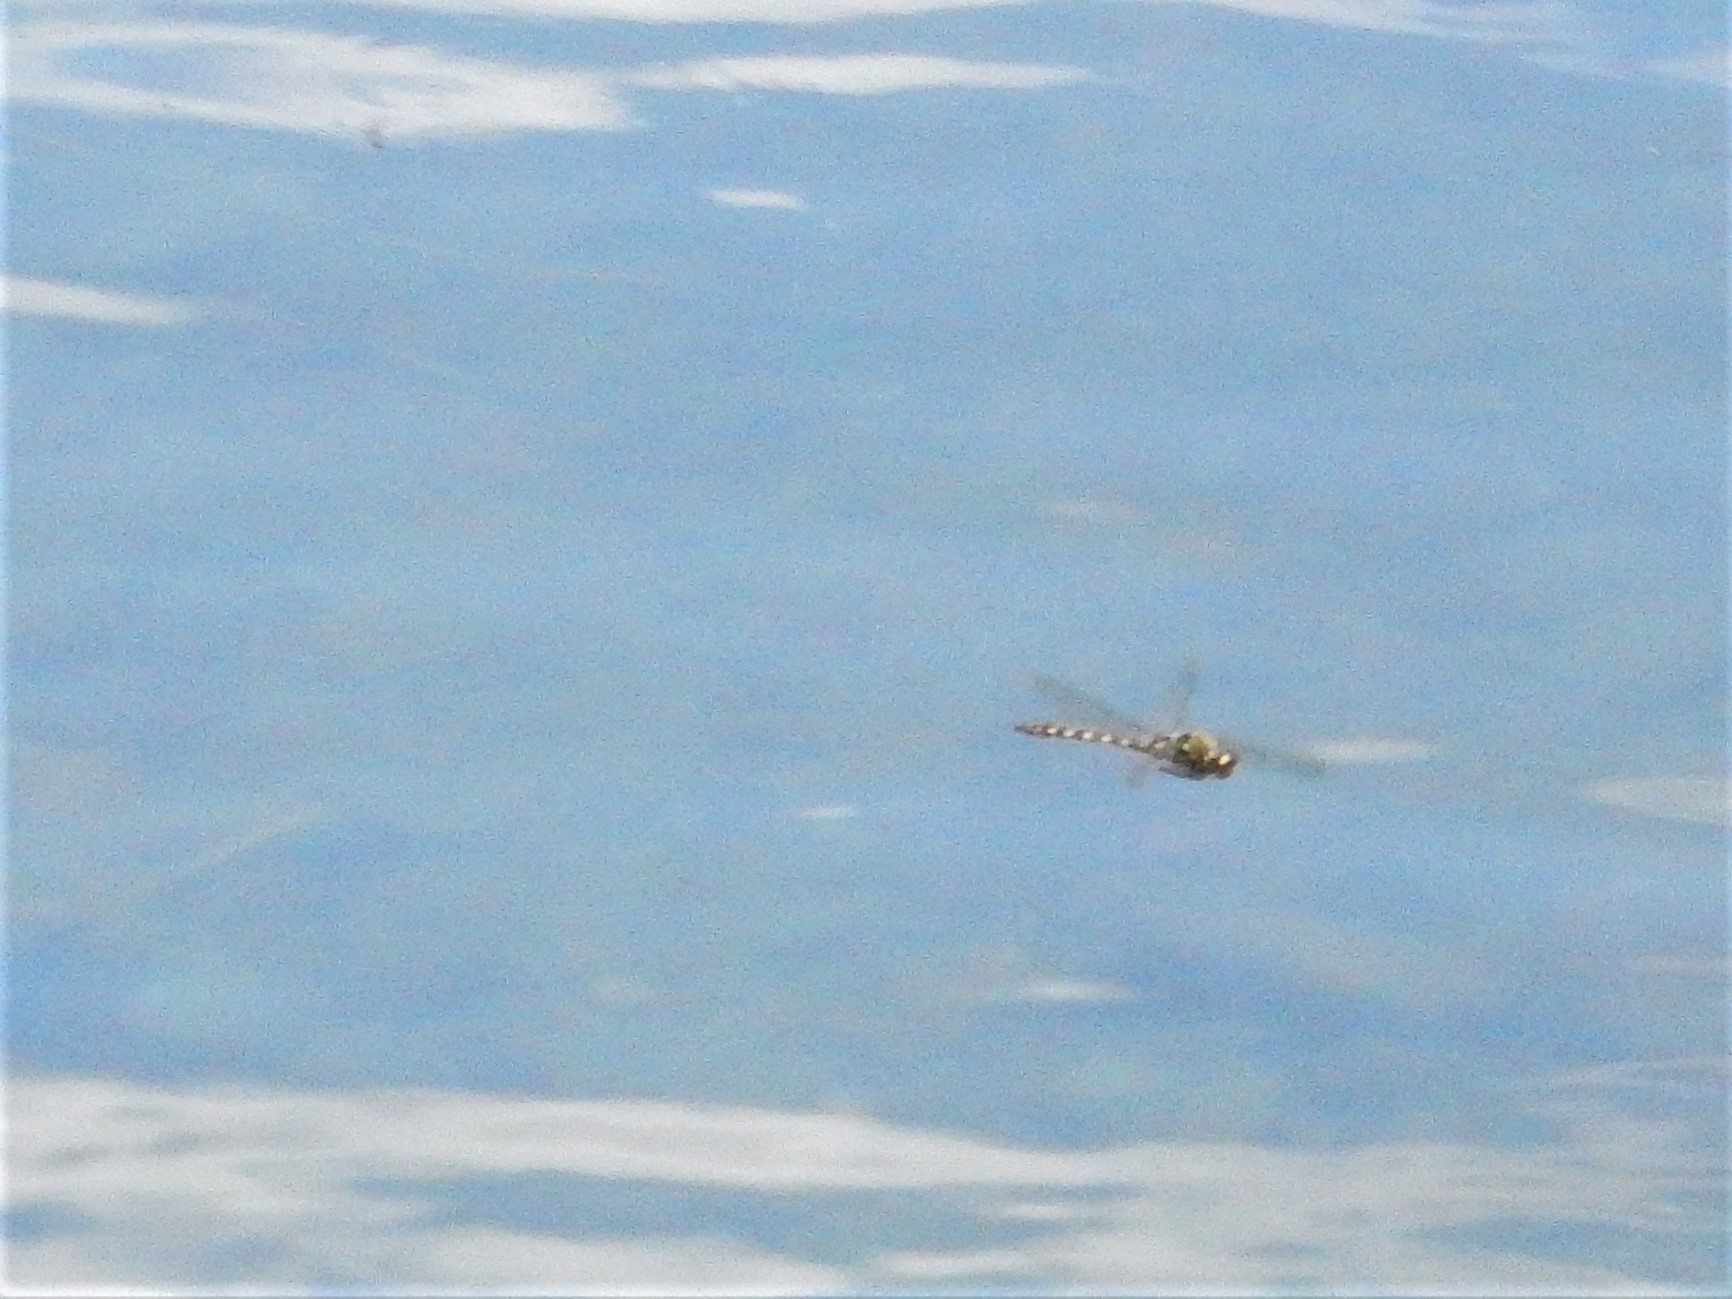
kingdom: Animalia
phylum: Arthropoda
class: Insecta
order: Odonata
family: Corduliidae
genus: Procordulia
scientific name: Procordulia grayi
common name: Yellow spotted dragonfly
